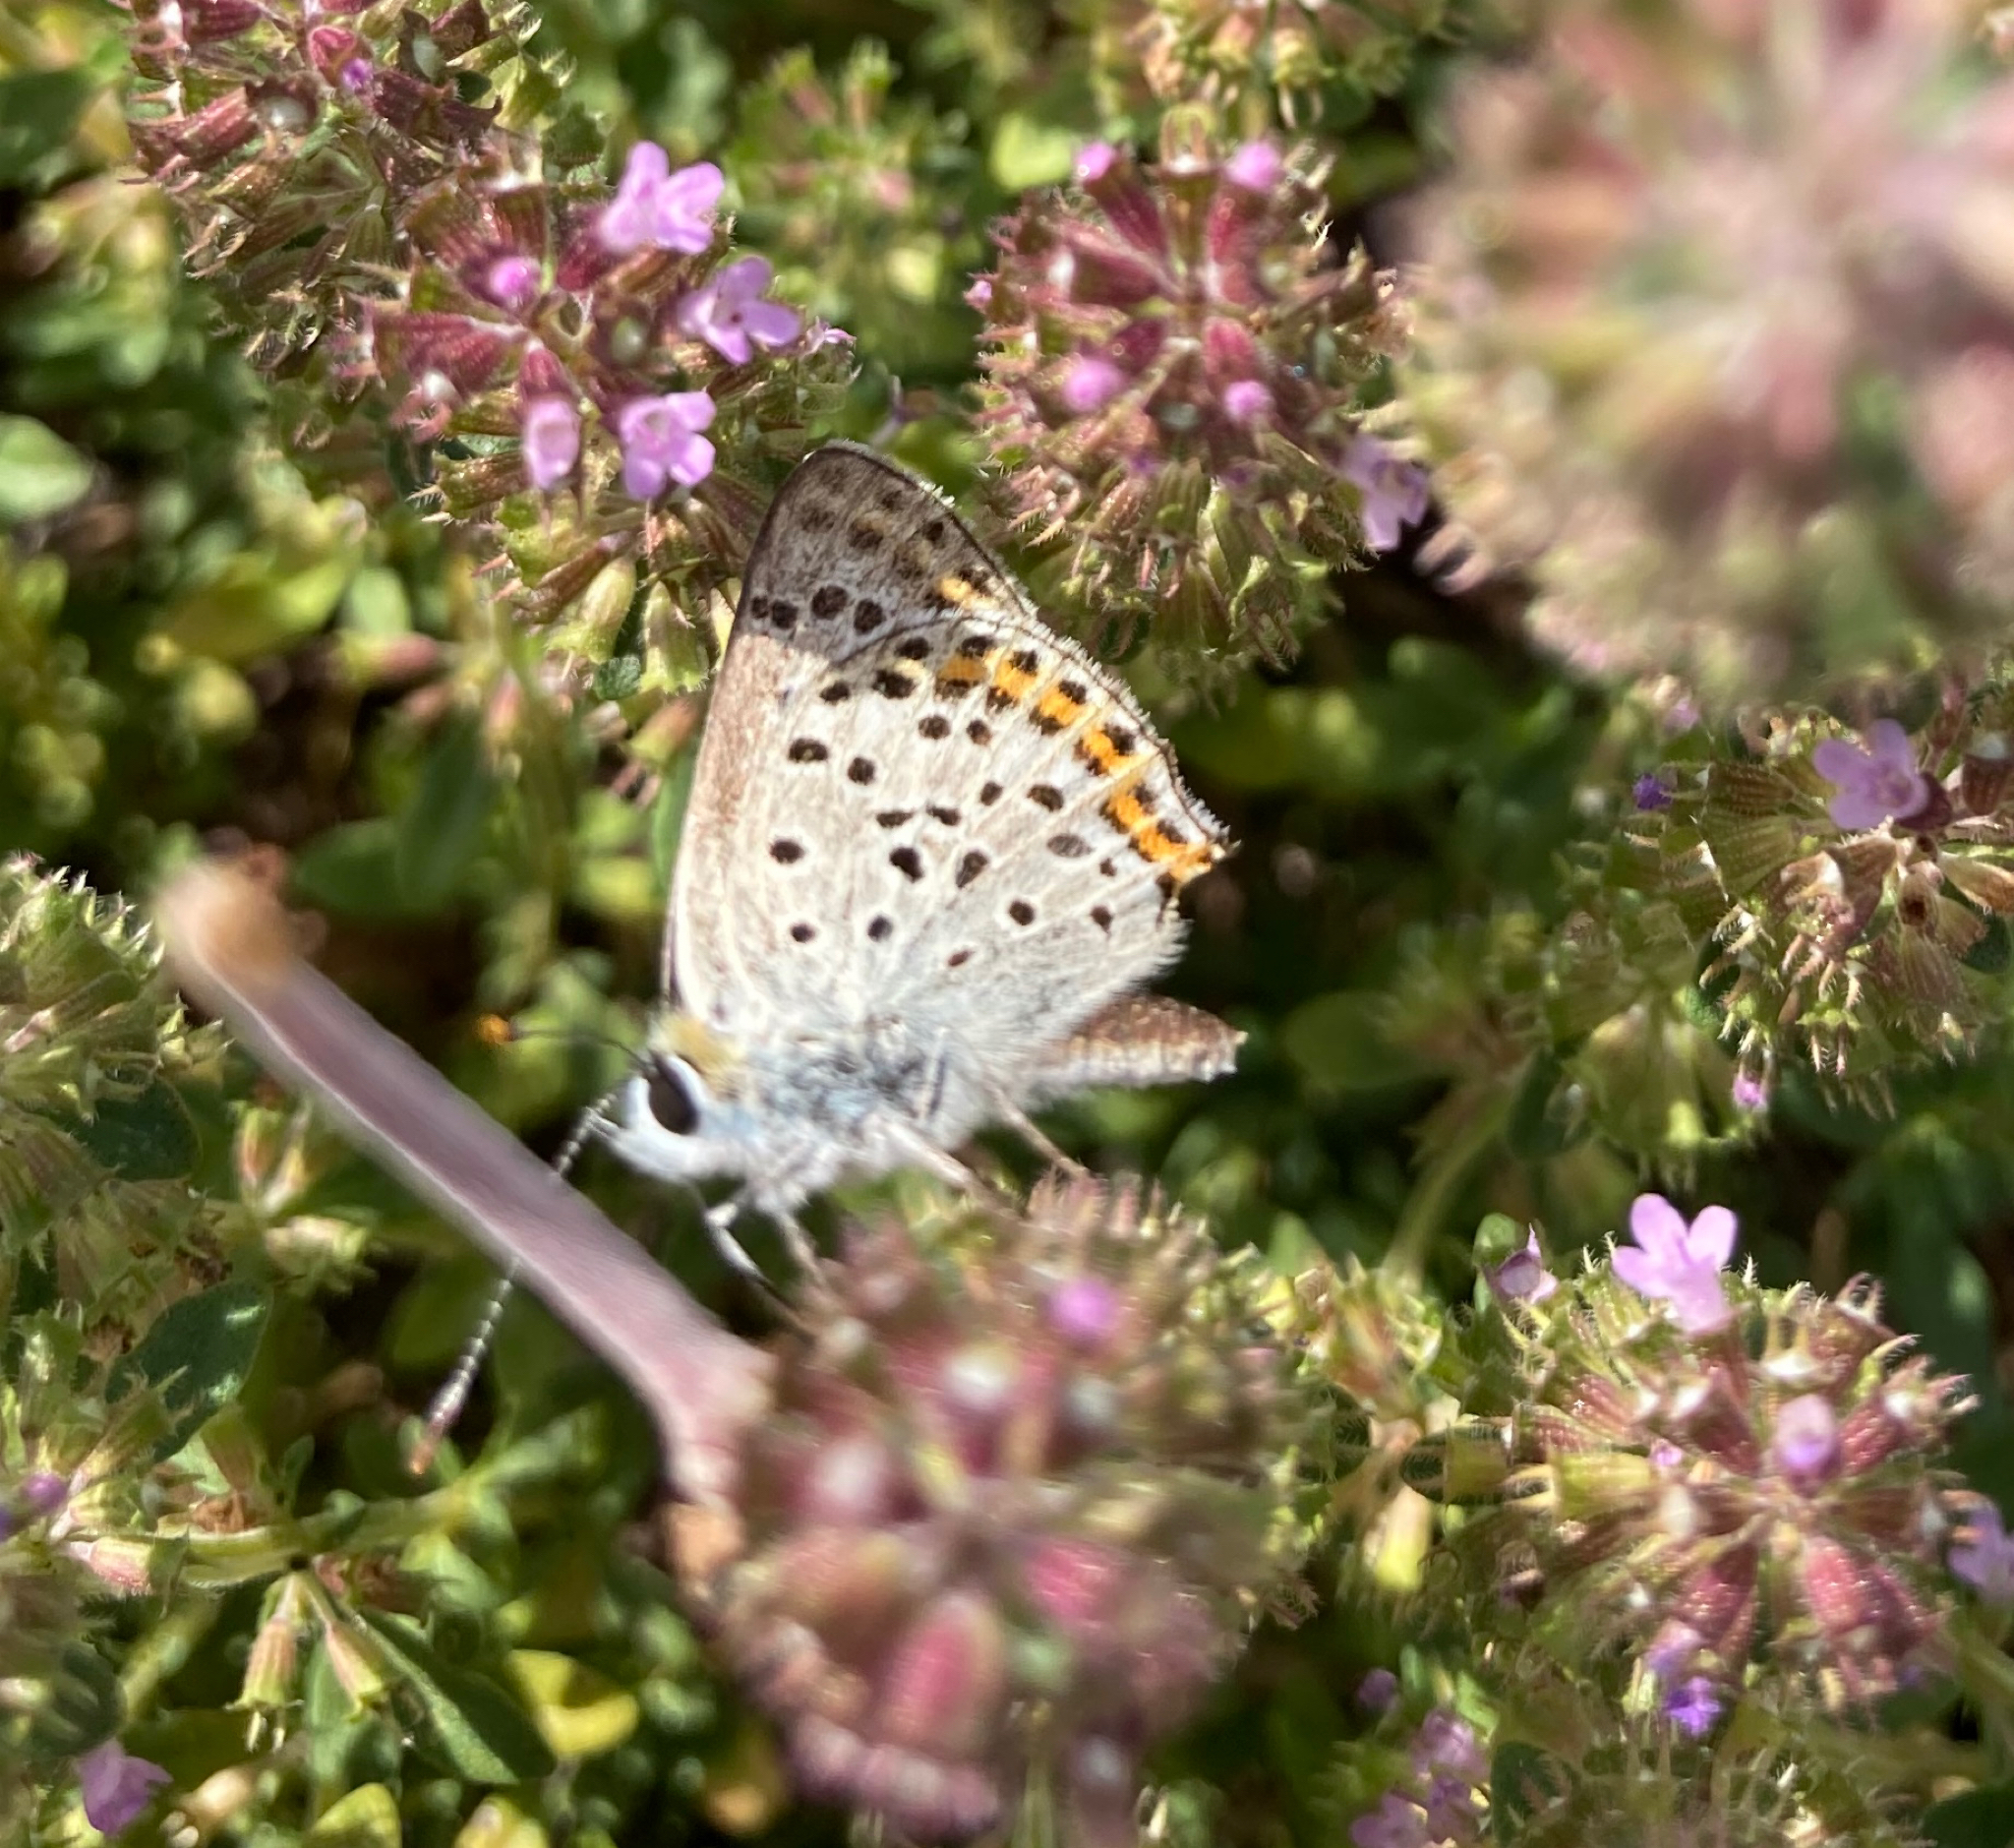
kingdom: Animalia
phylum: Arthropoda
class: Insecta
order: Lepidoptera
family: Lycaenidae
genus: Loweia
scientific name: Loweia tityrus
